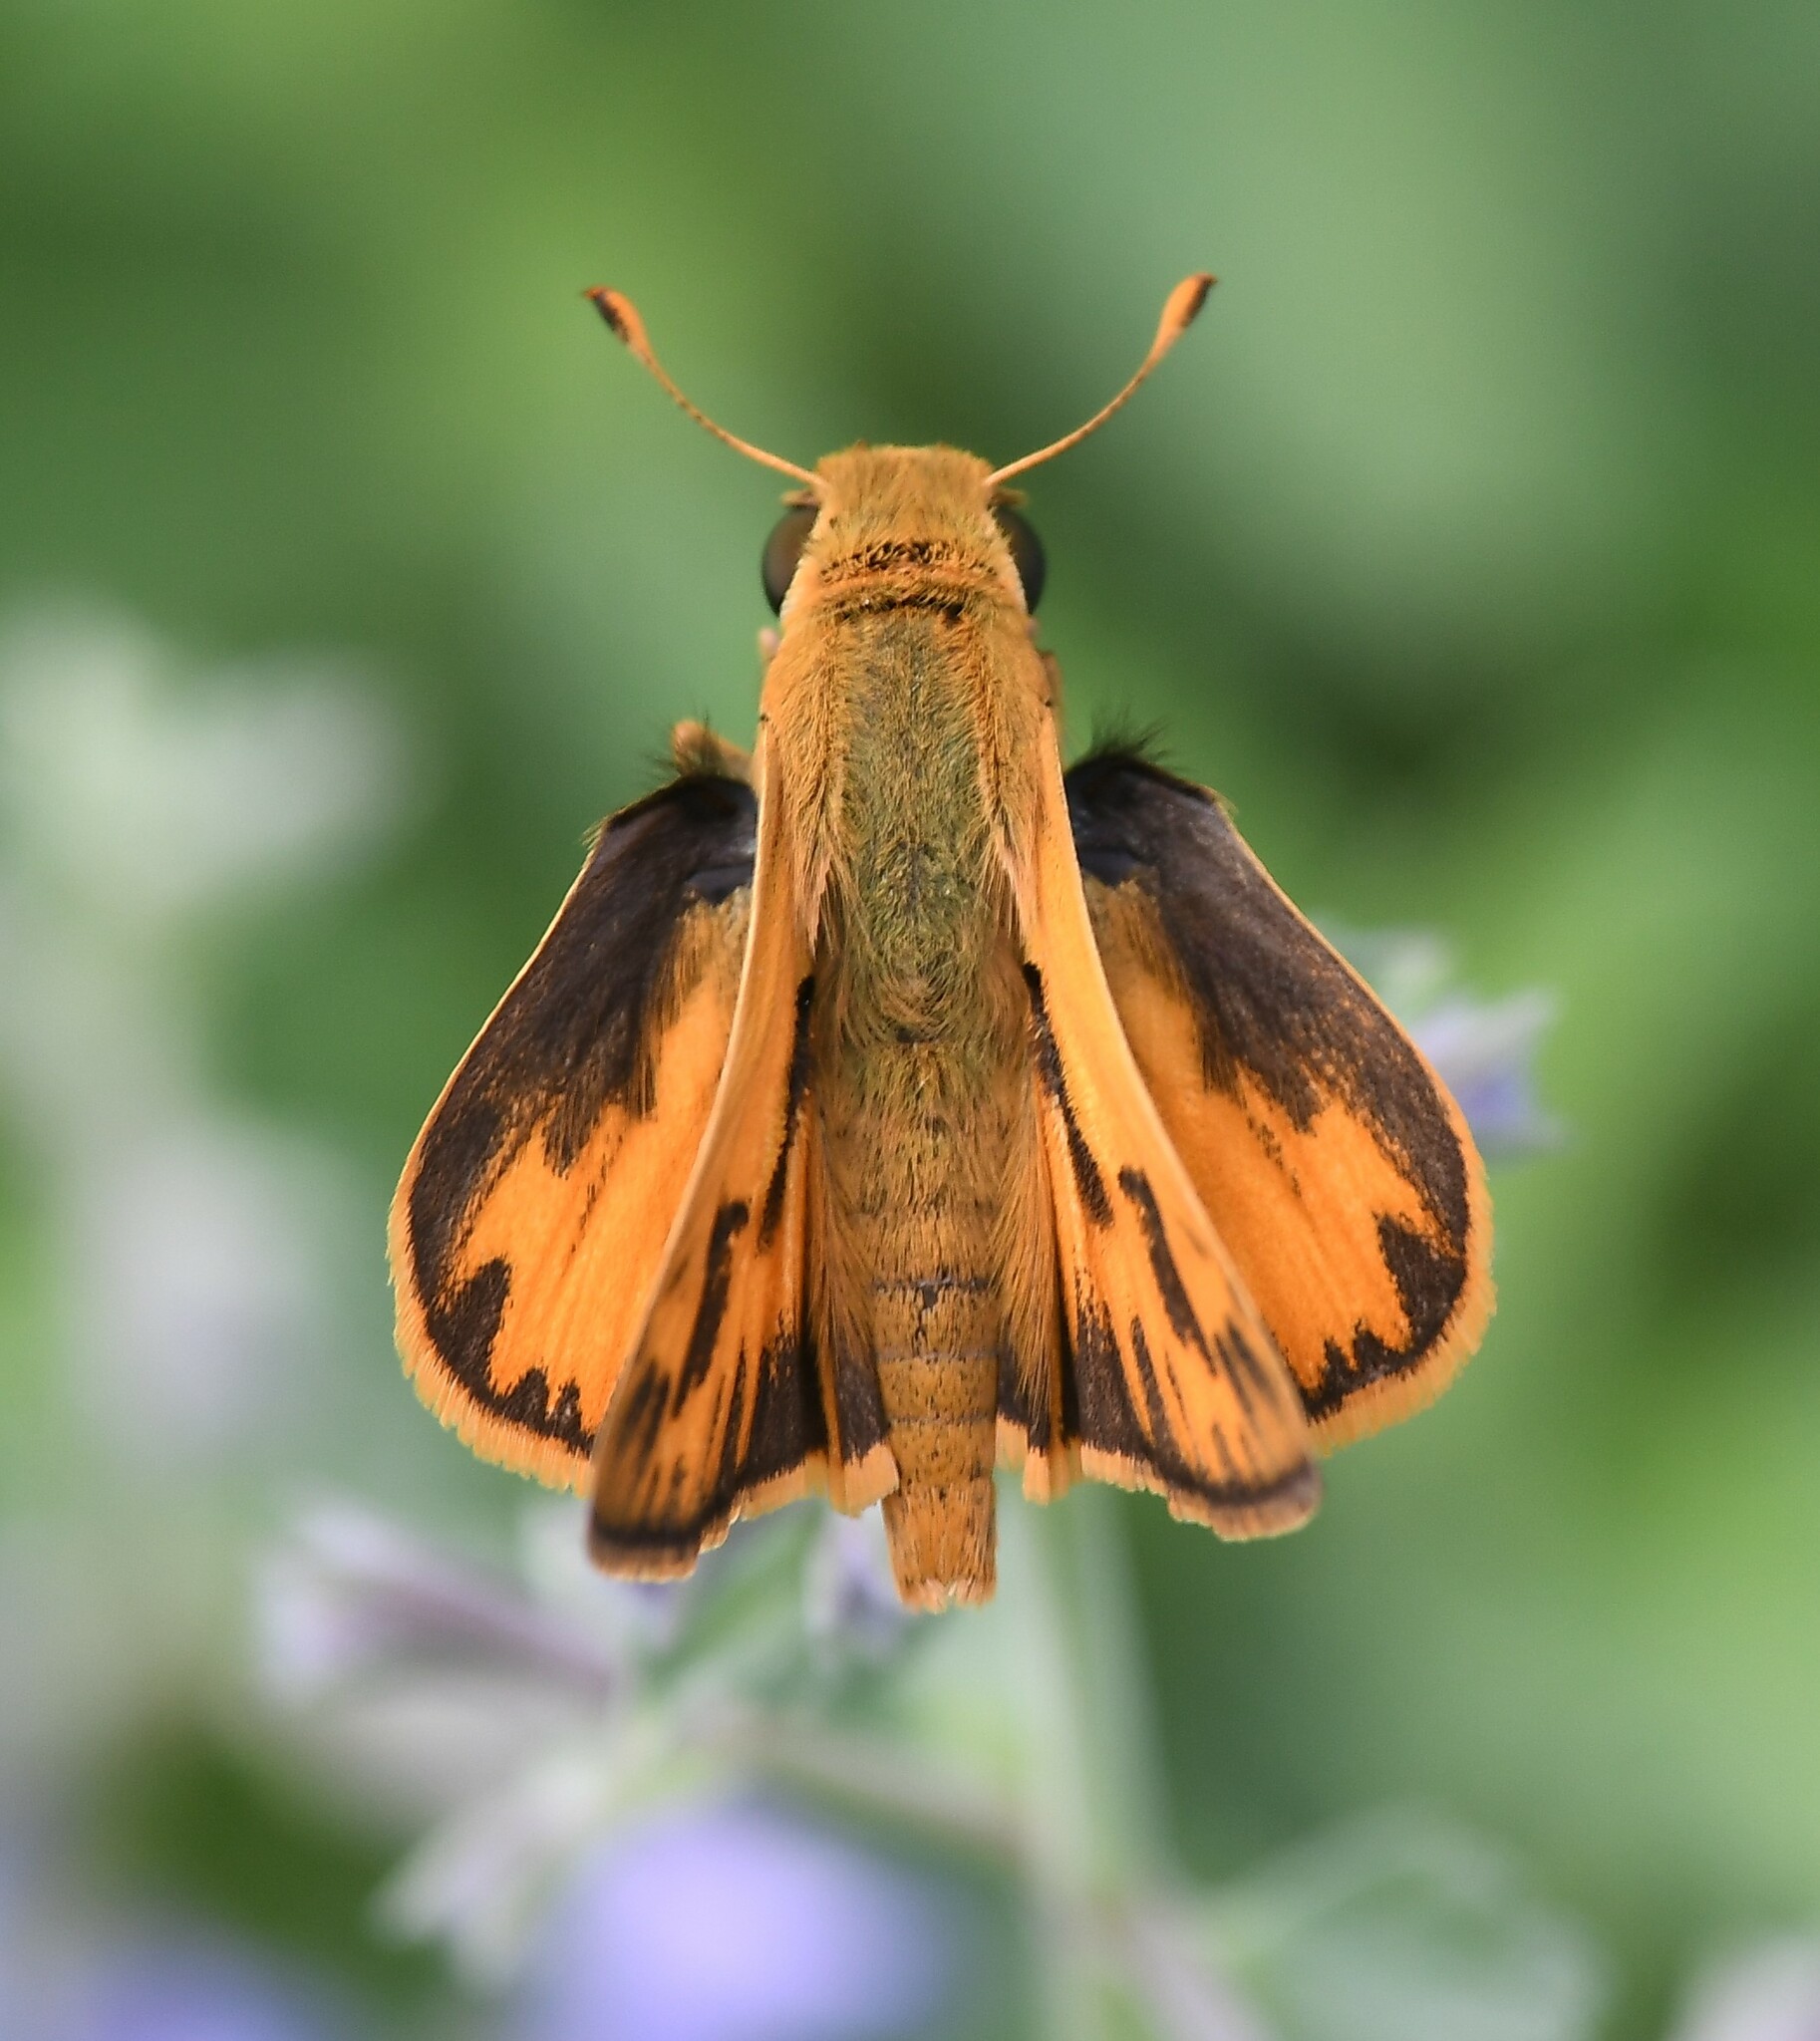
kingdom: Animalia
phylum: Arthropoda
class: Insecta
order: Lepidoptera
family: Hesperiidae
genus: Hylephila
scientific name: Hylephila phyleus
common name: Fiery skipper
